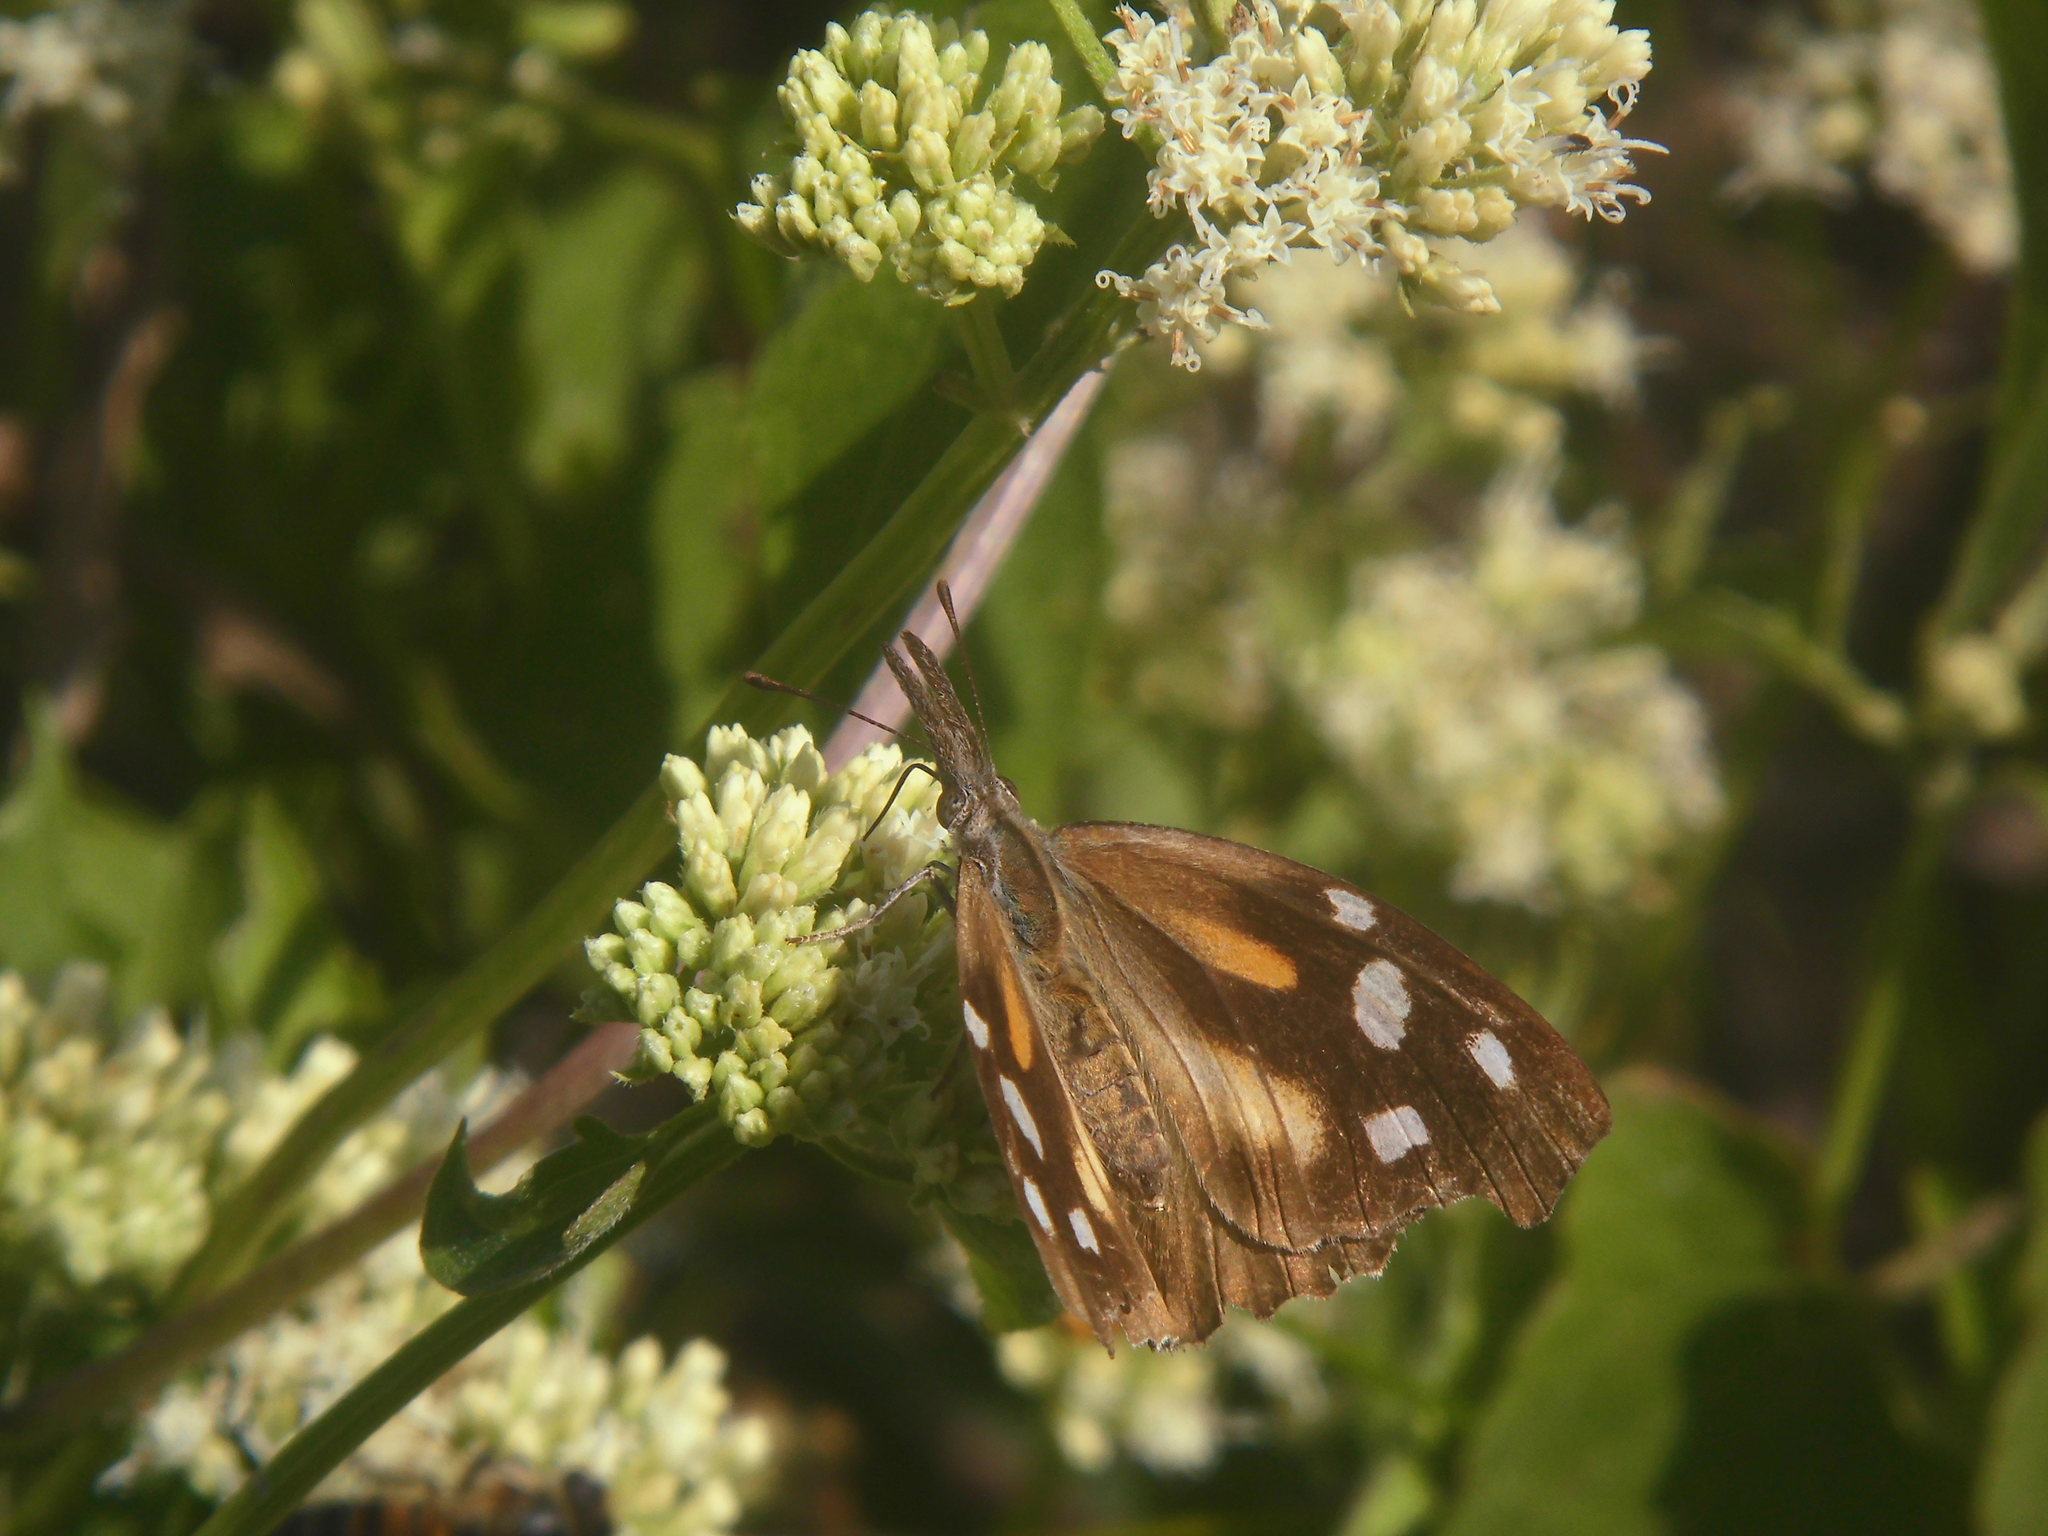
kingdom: Animalia
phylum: Arthropoda
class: Insecta
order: Lepidoptera
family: Nymphalidae
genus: Libytheana
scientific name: Libytheana carinenta
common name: American snout
